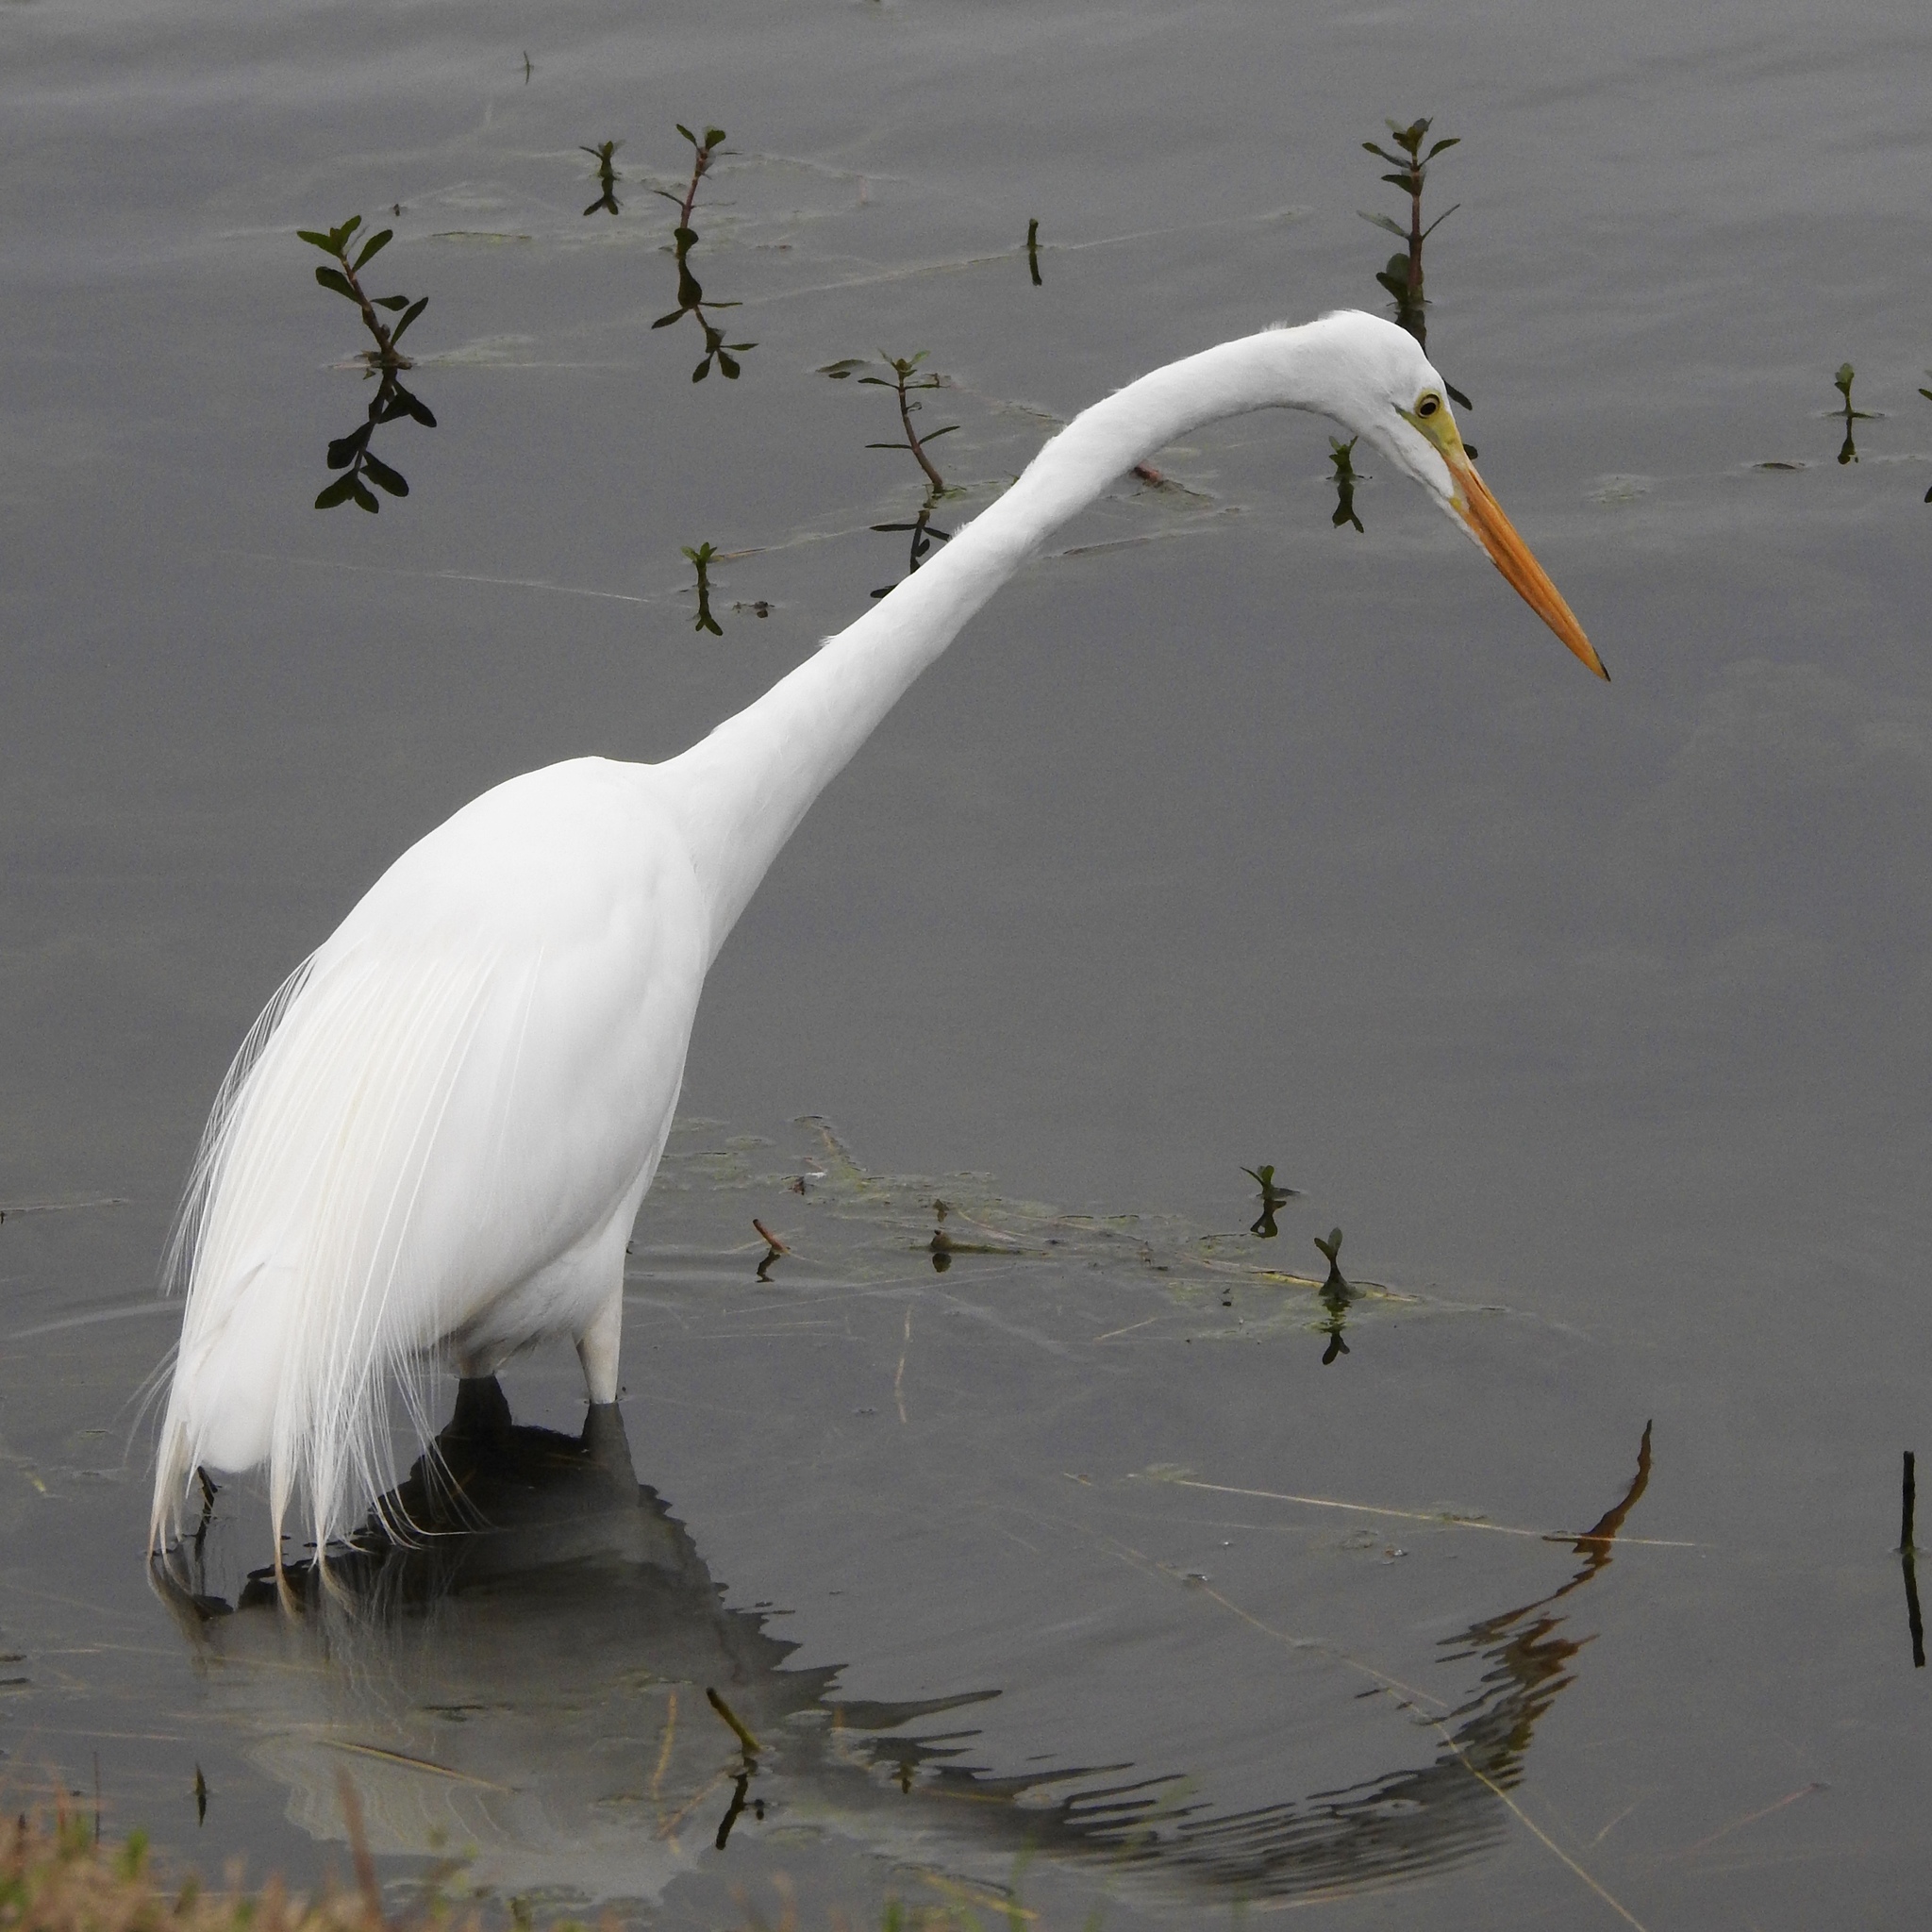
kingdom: Animalia
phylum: Chordata
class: Aves
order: Pelecaniformes
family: Ardeidae
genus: Ardea
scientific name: Ardea alba
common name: Great egret
